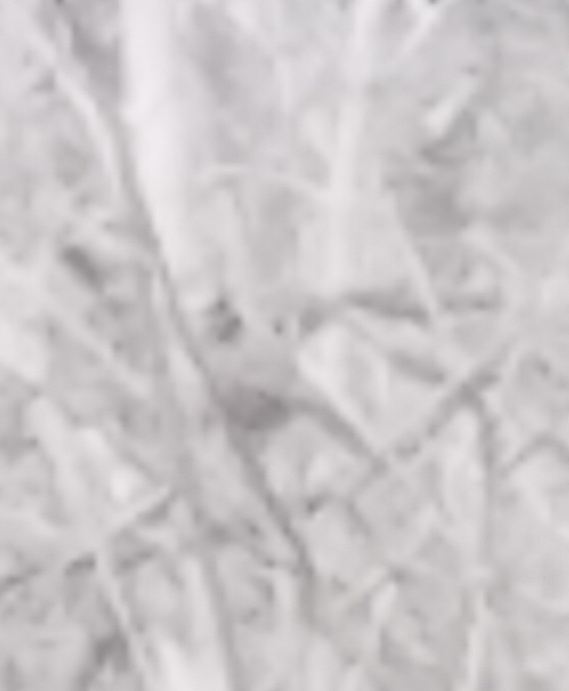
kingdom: Animalia
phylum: Chordata
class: Aves
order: Passeriformes
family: Turdidae
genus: Turdus
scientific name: Turdus migratorius
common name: American robin
